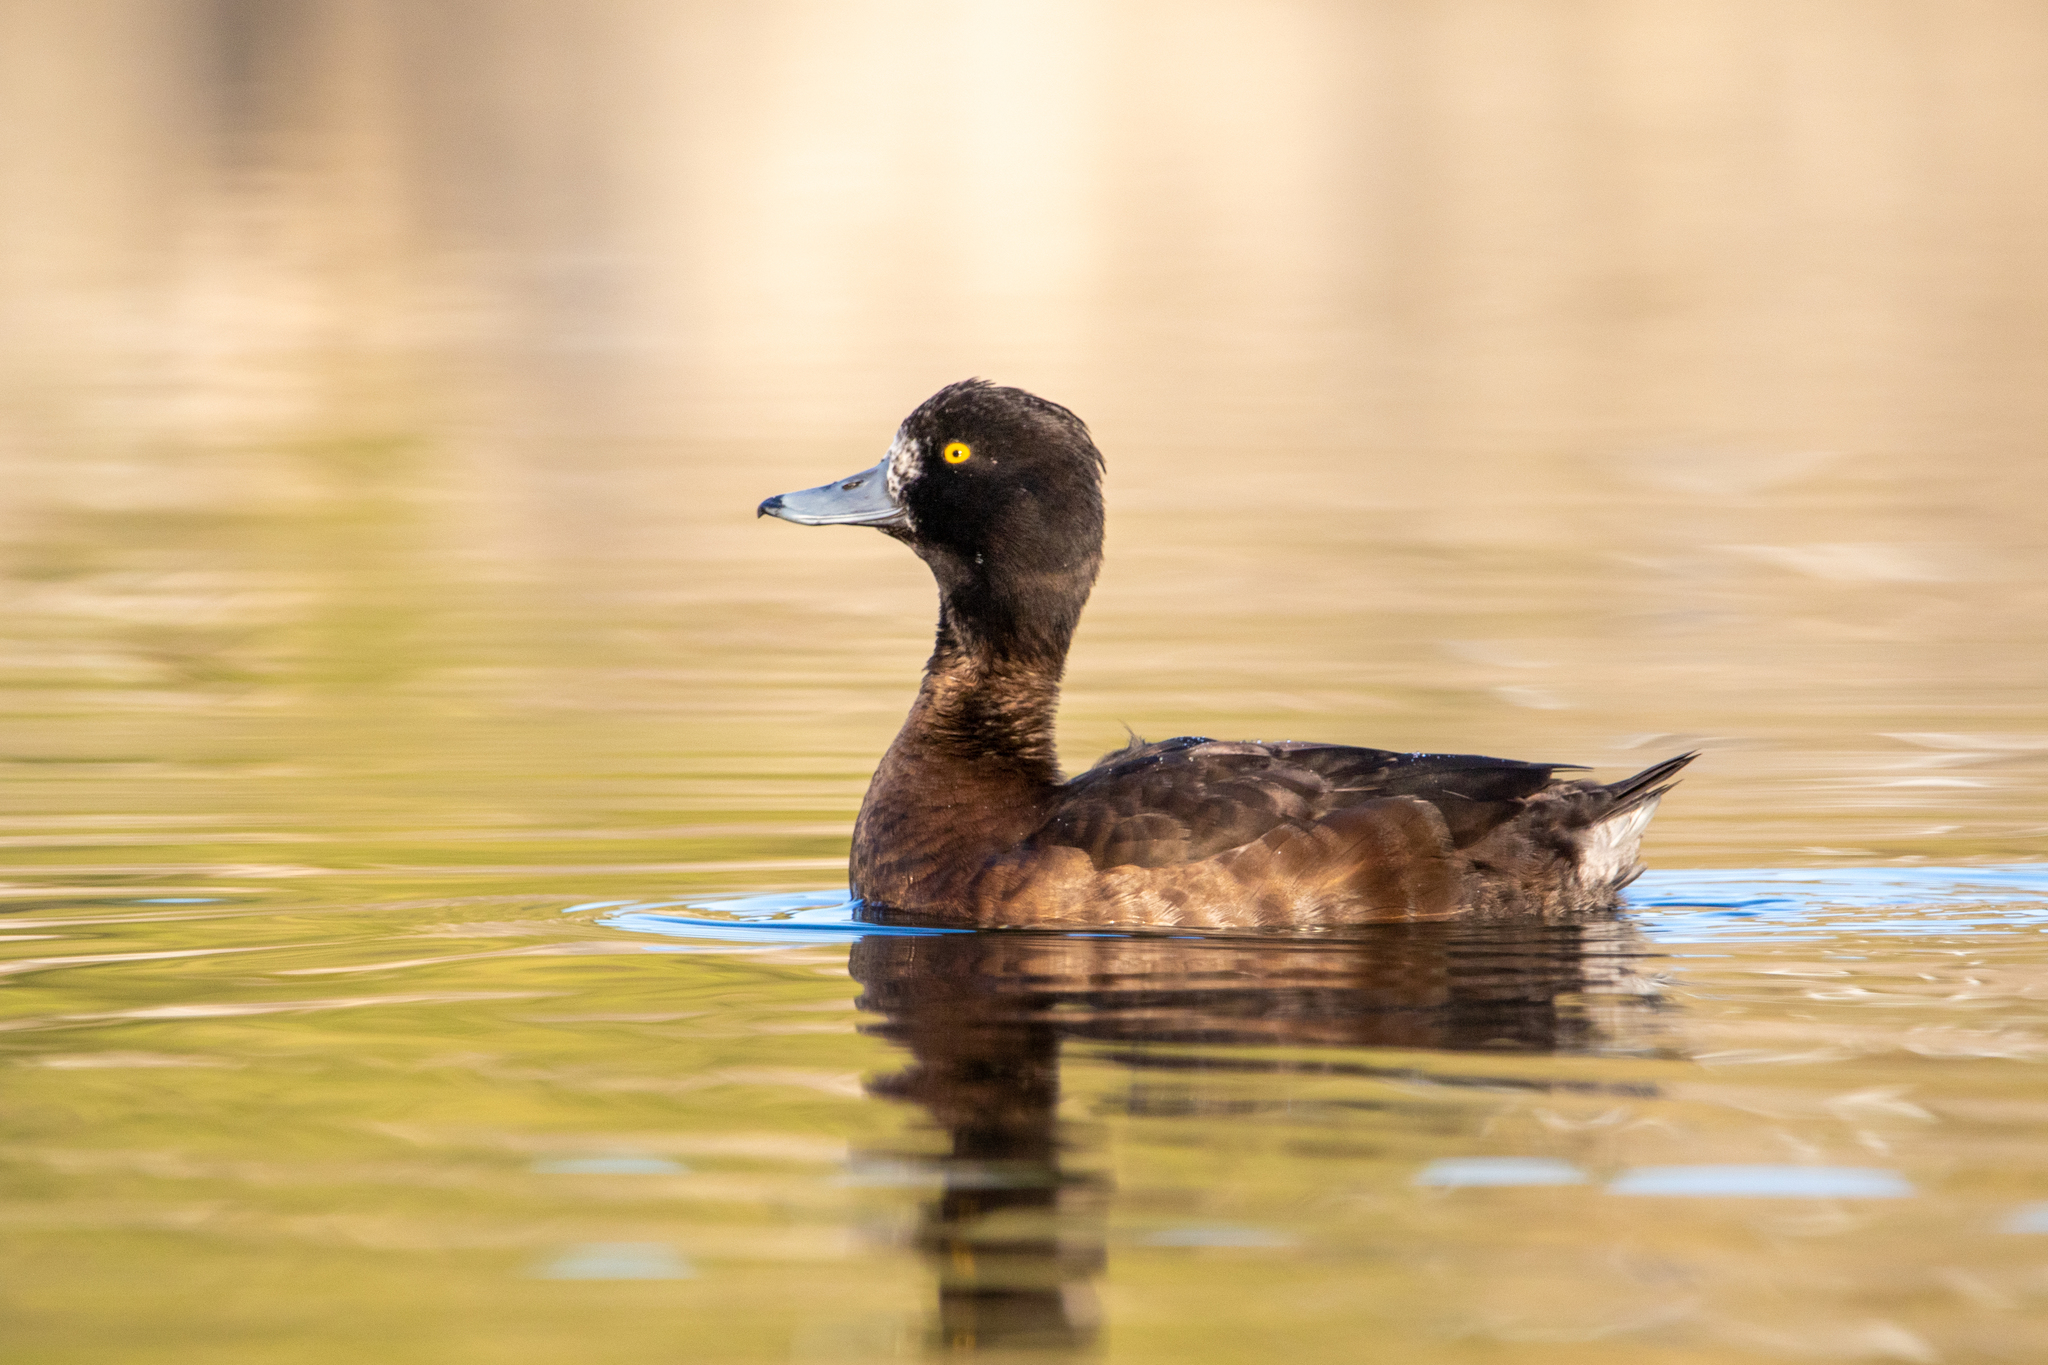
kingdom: Animalia
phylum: Chordata
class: Aves
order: Anseriformes
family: Anatidae
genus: Aythya
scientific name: Aythya fuligula
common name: Tufted duck
